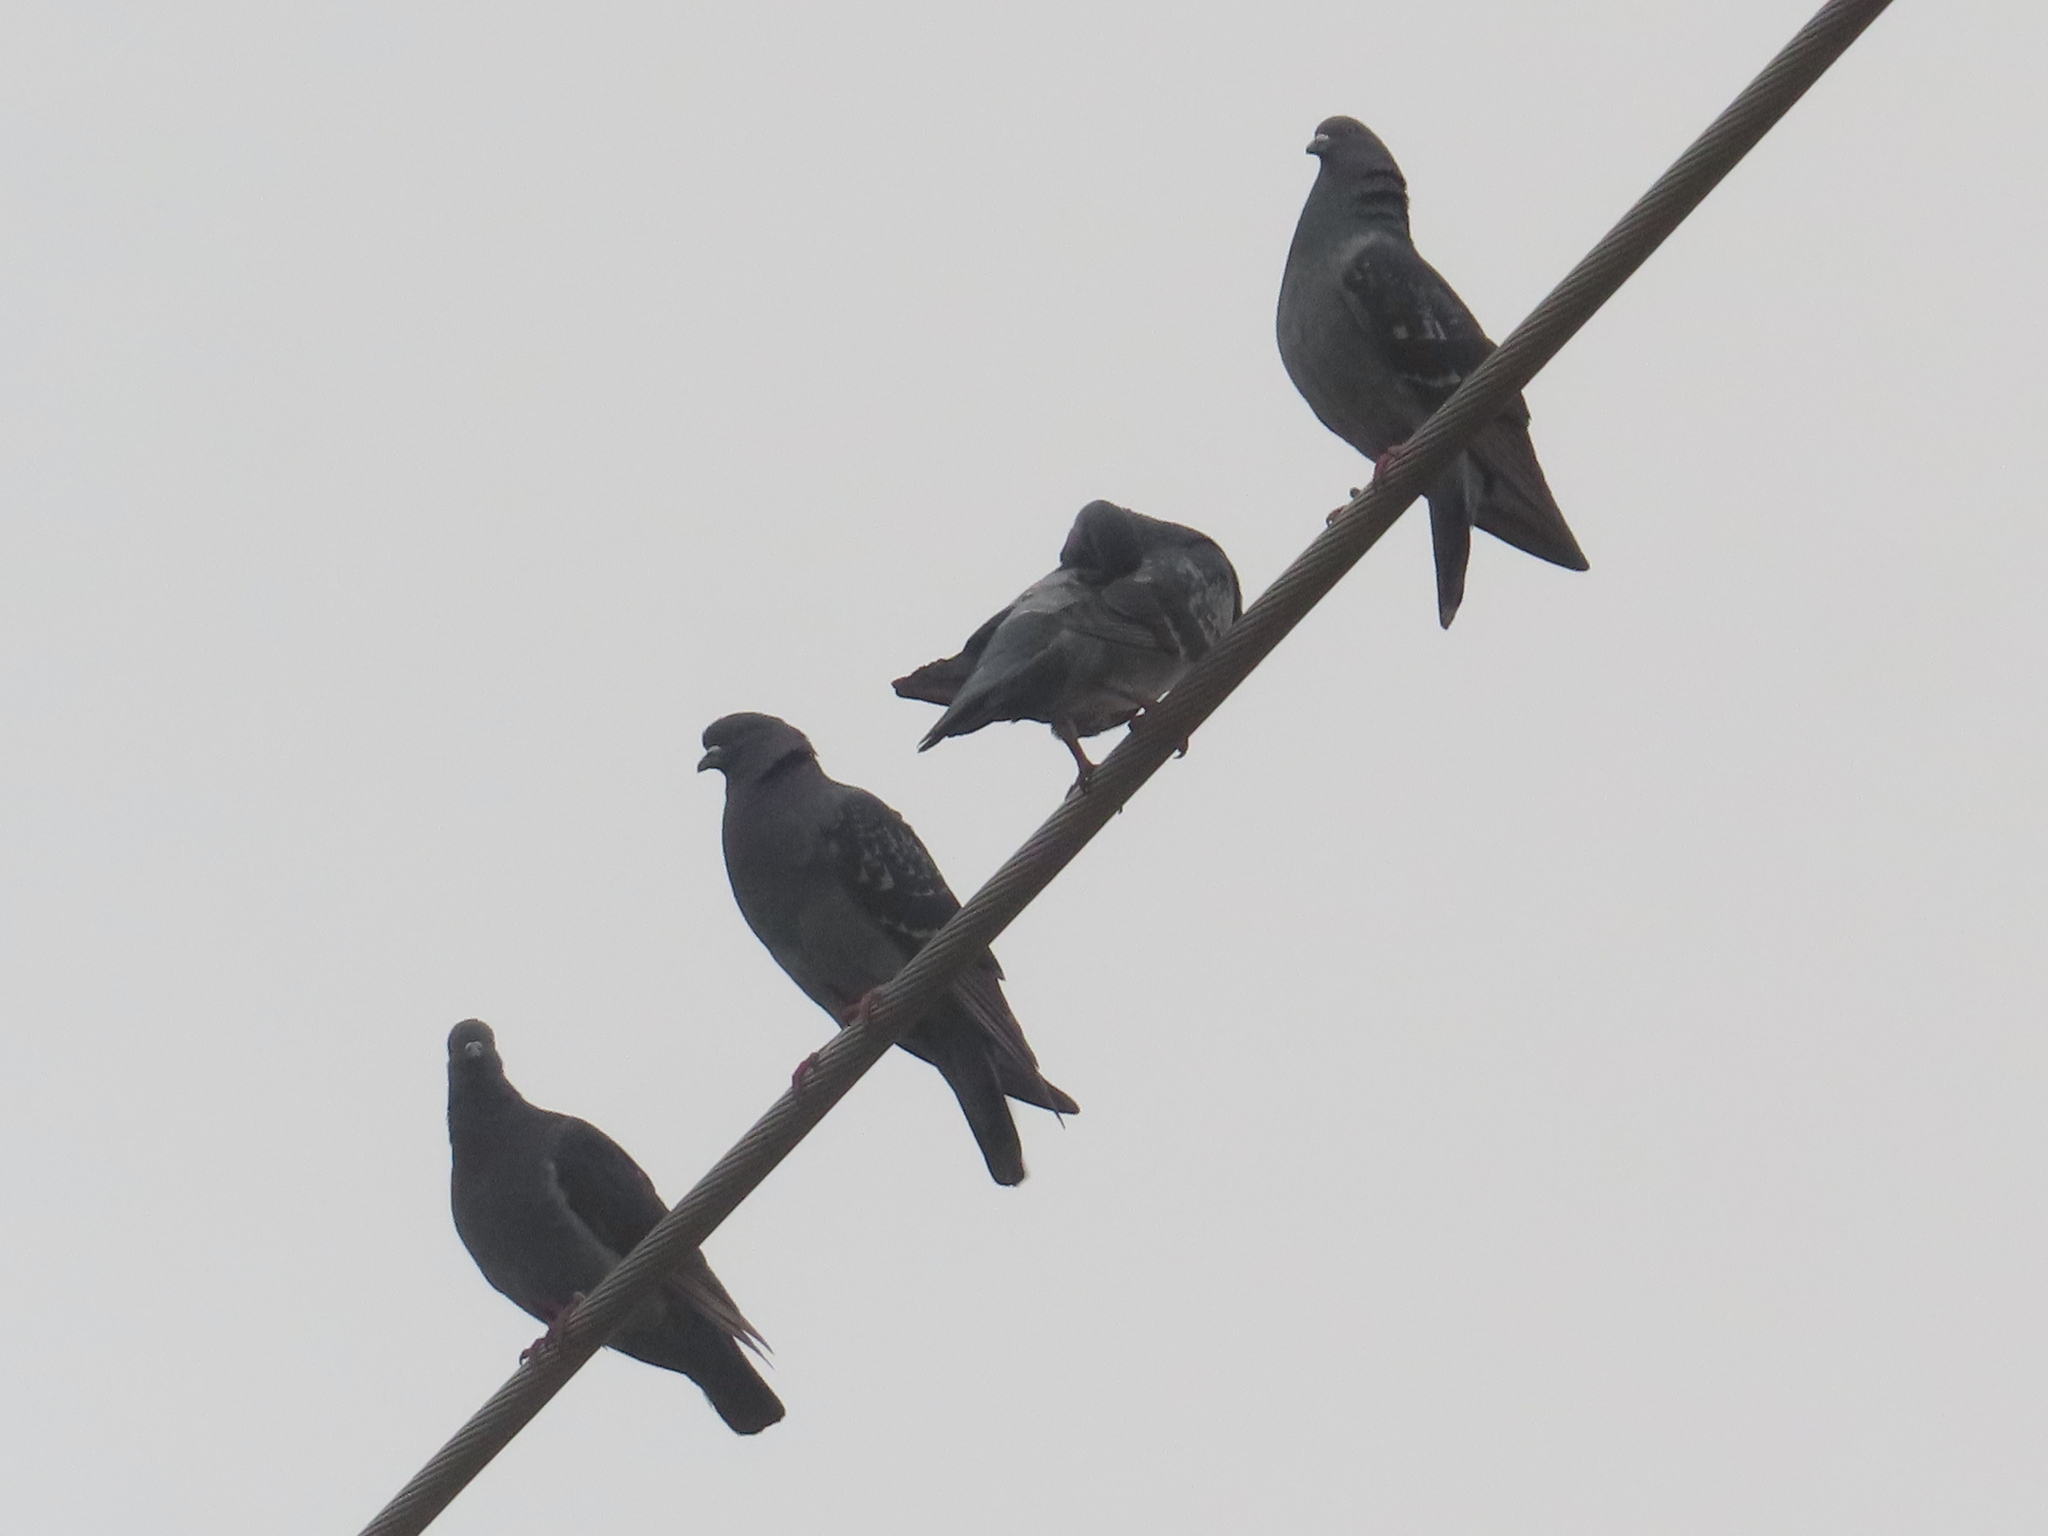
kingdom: Animalia
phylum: Chordata
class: Aves
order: Columbiformes
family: Columbidae
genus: Columba
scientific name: Columba livia
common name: Rock pigeon
